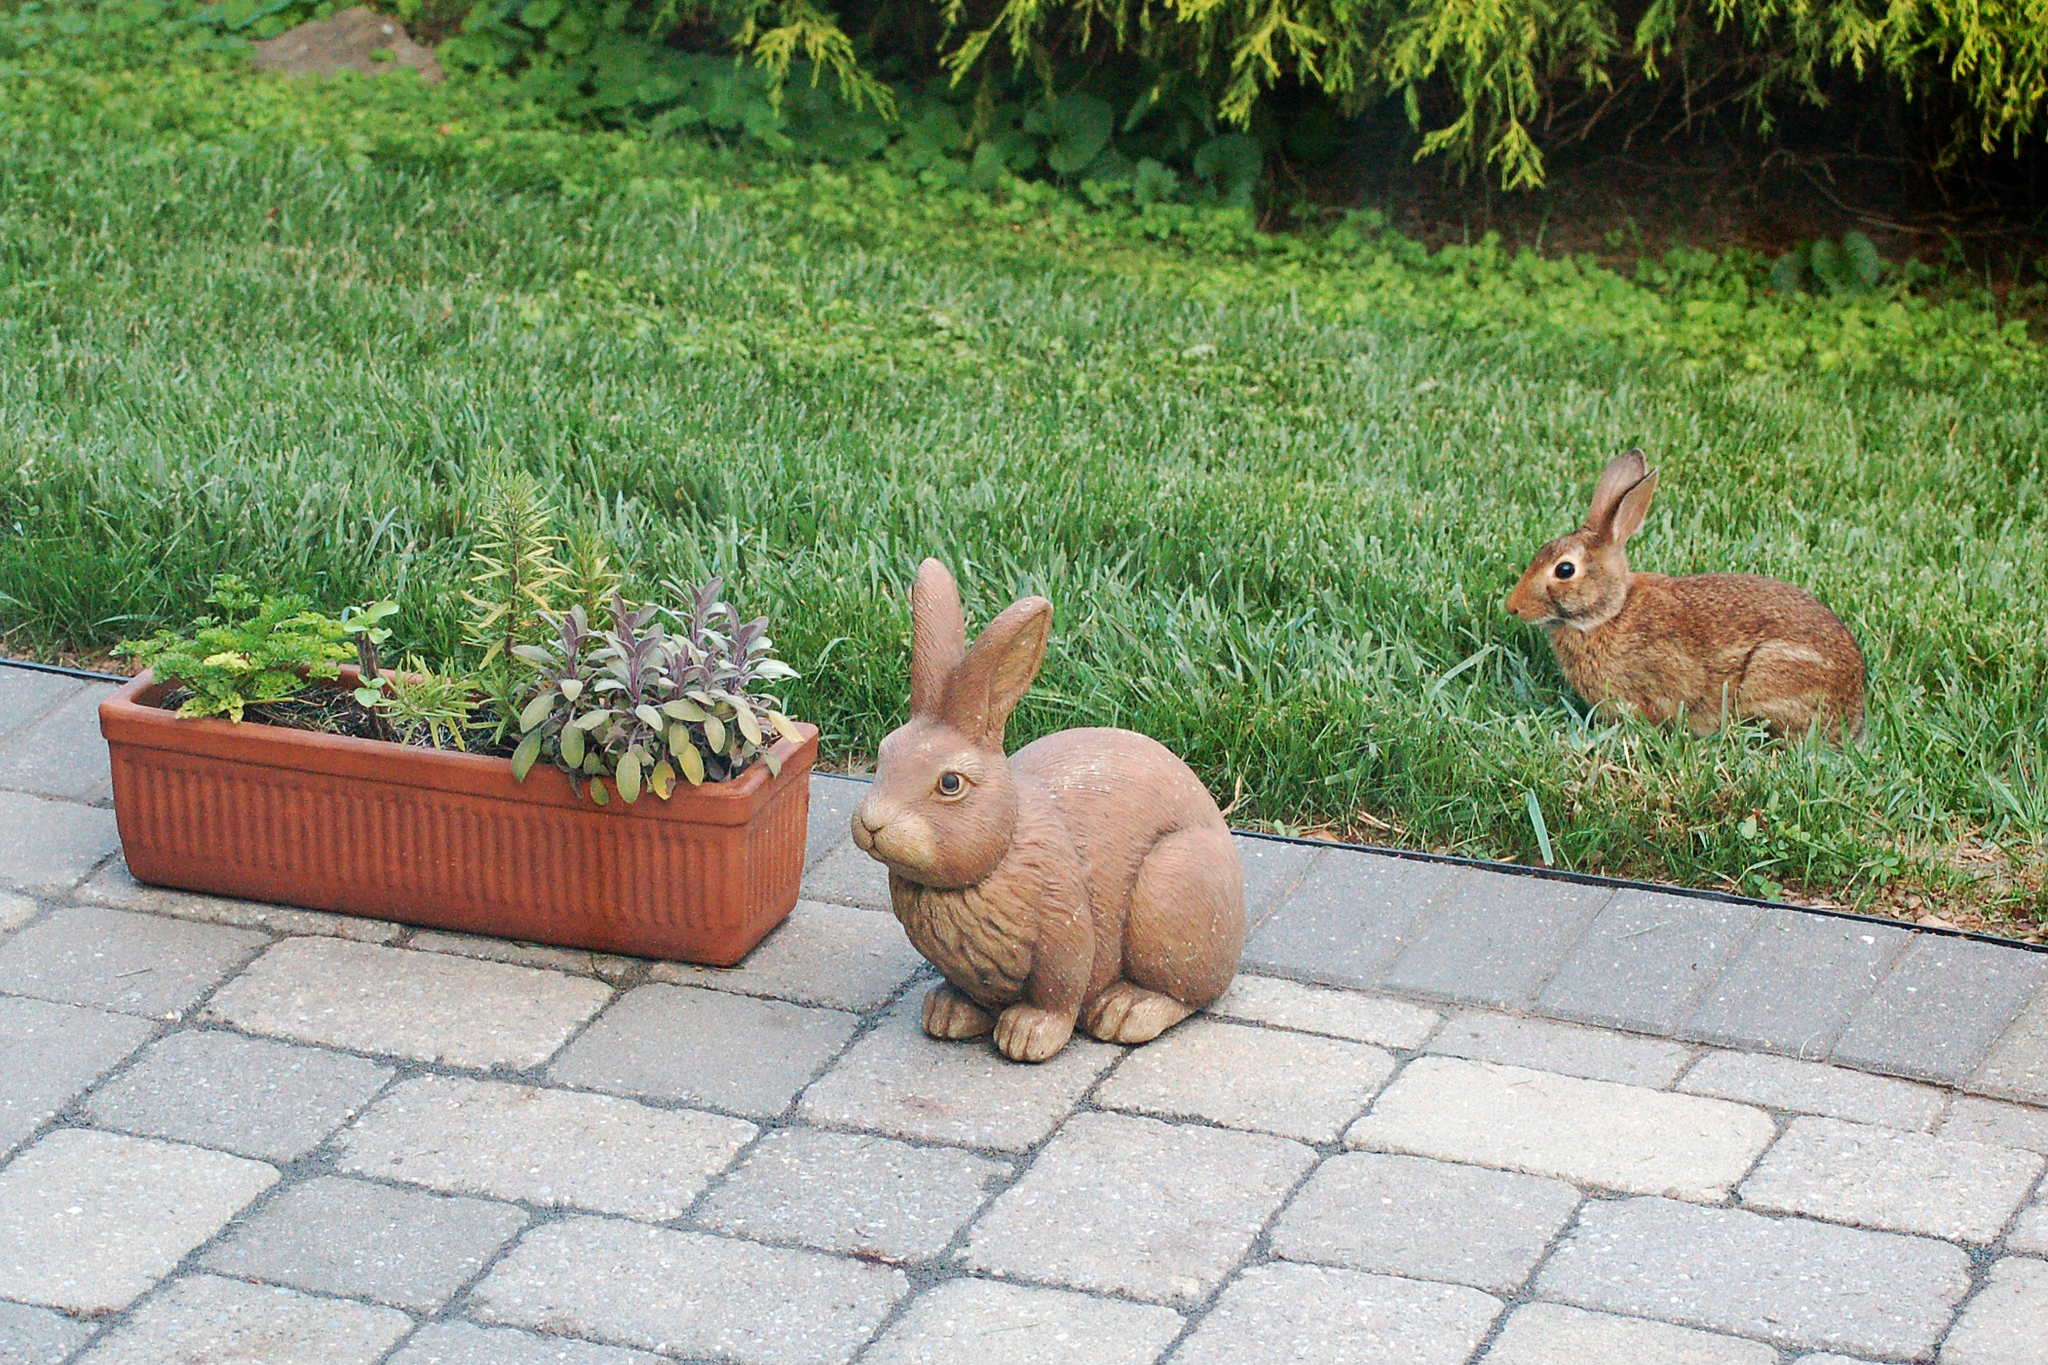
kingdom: Animalia
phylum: Chordata
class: Mammalia
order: Lagomorpha
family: Leporidae
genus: Sylvilagus
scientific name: Sylvilagus floridanus
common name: Eastern cottontail
